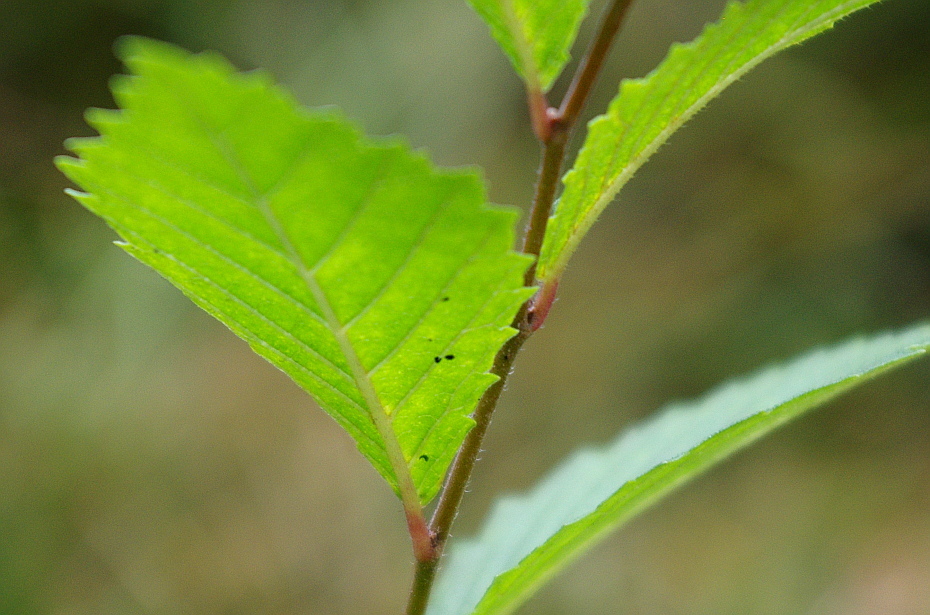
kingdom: Plantae
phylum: Tracheophyta
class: Magnoliopsida
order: Rosales
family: Ulmaceae
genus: Ulmus
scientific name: Ulmus pumila
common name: Siberian elm
